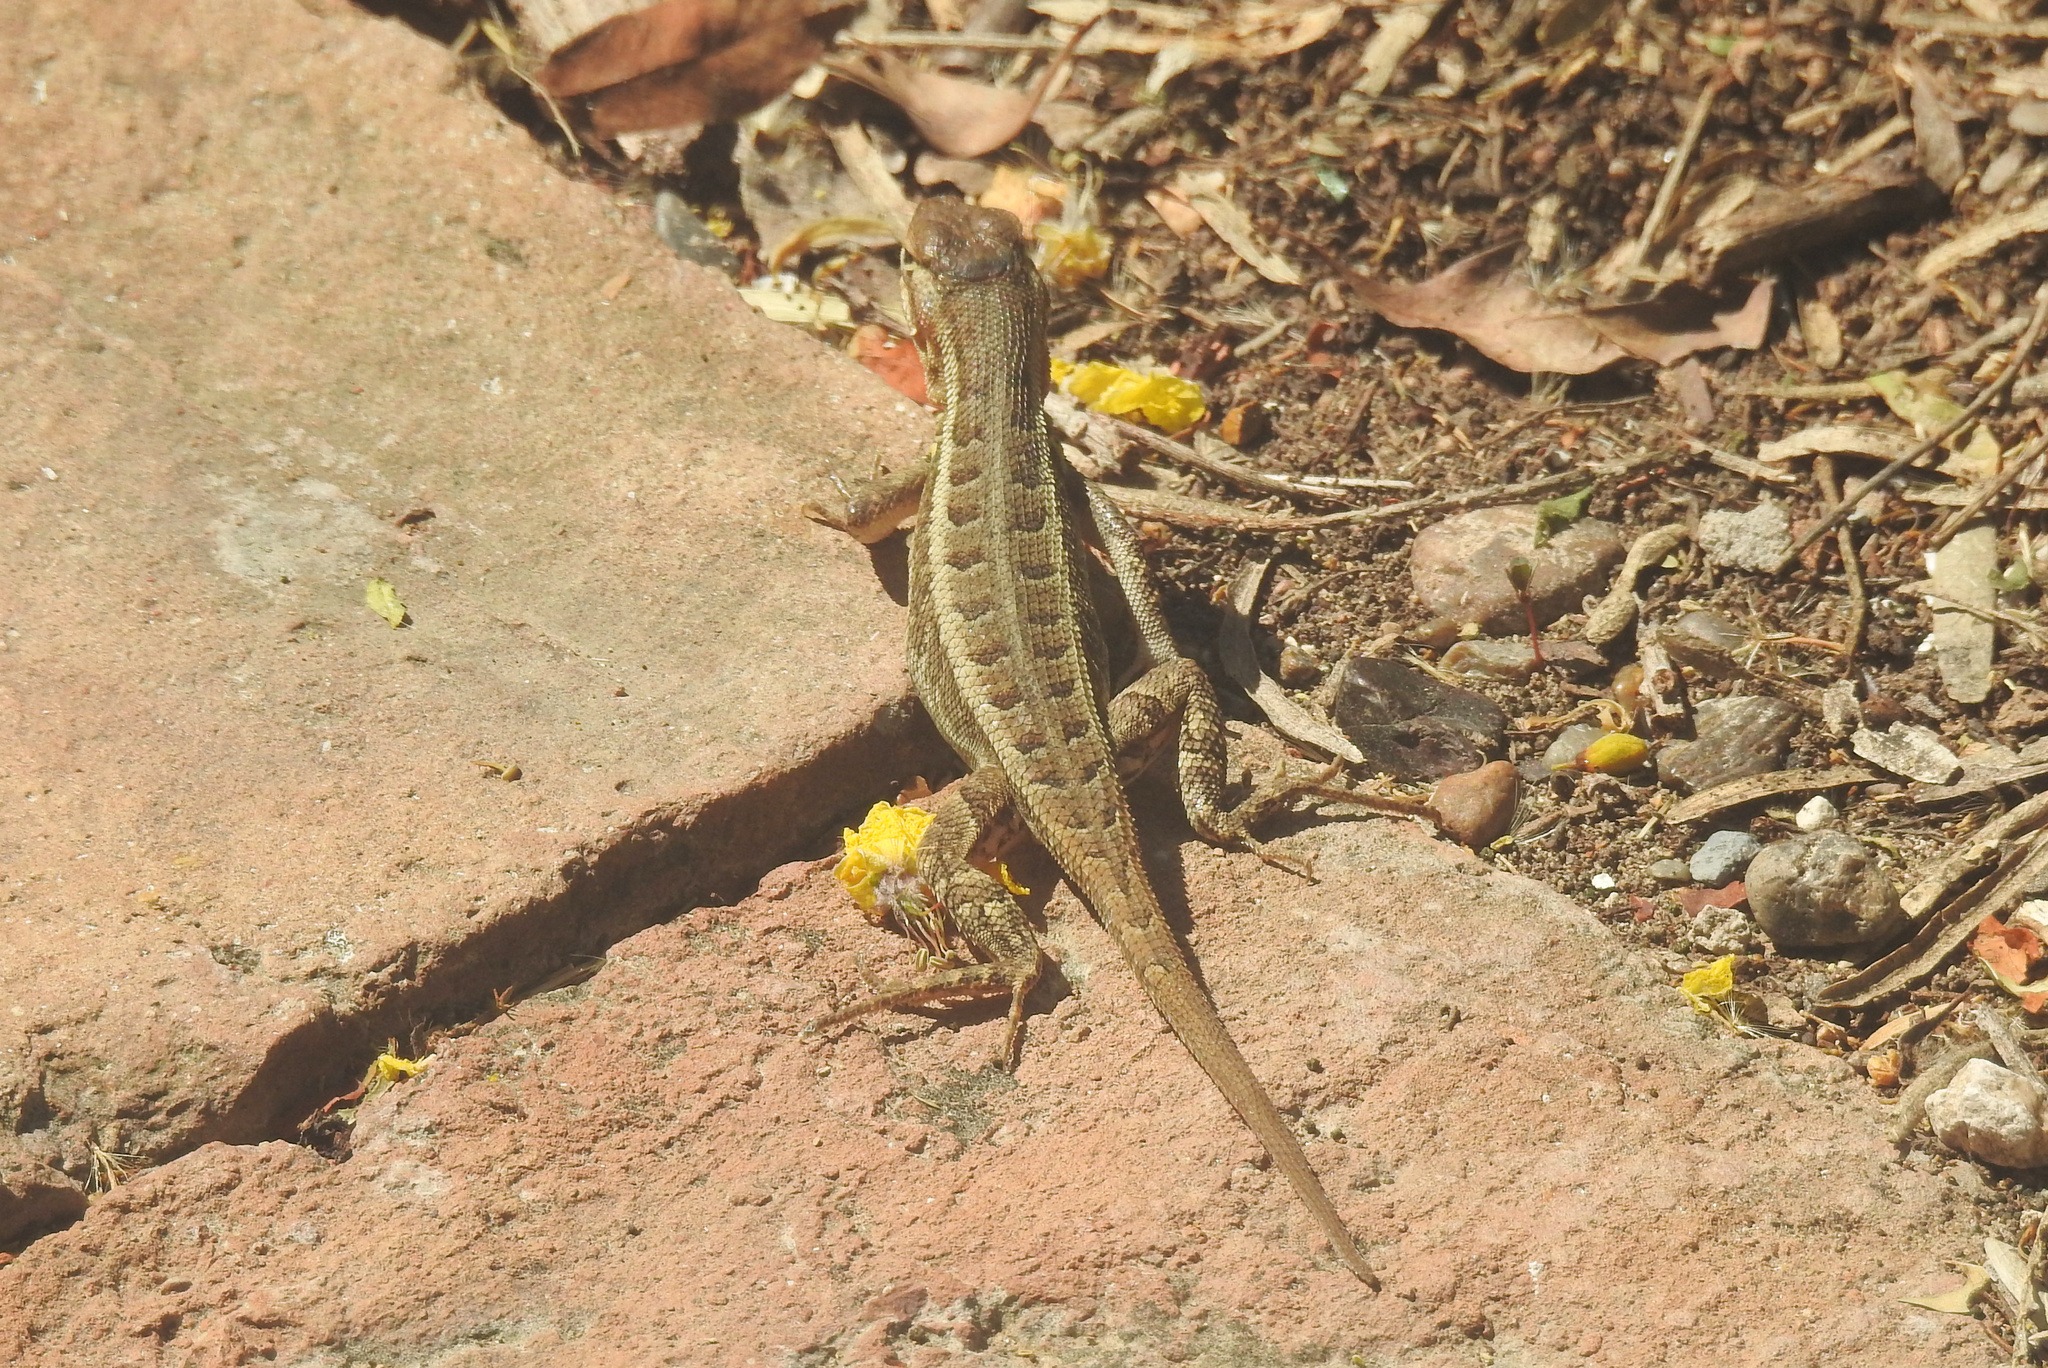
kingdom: Animalia
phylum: Chordata
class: Squamata
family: Phrynosomatidae
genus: Sceloporus
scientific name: Sceloporus variabilis
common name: Rosebelly lizard
